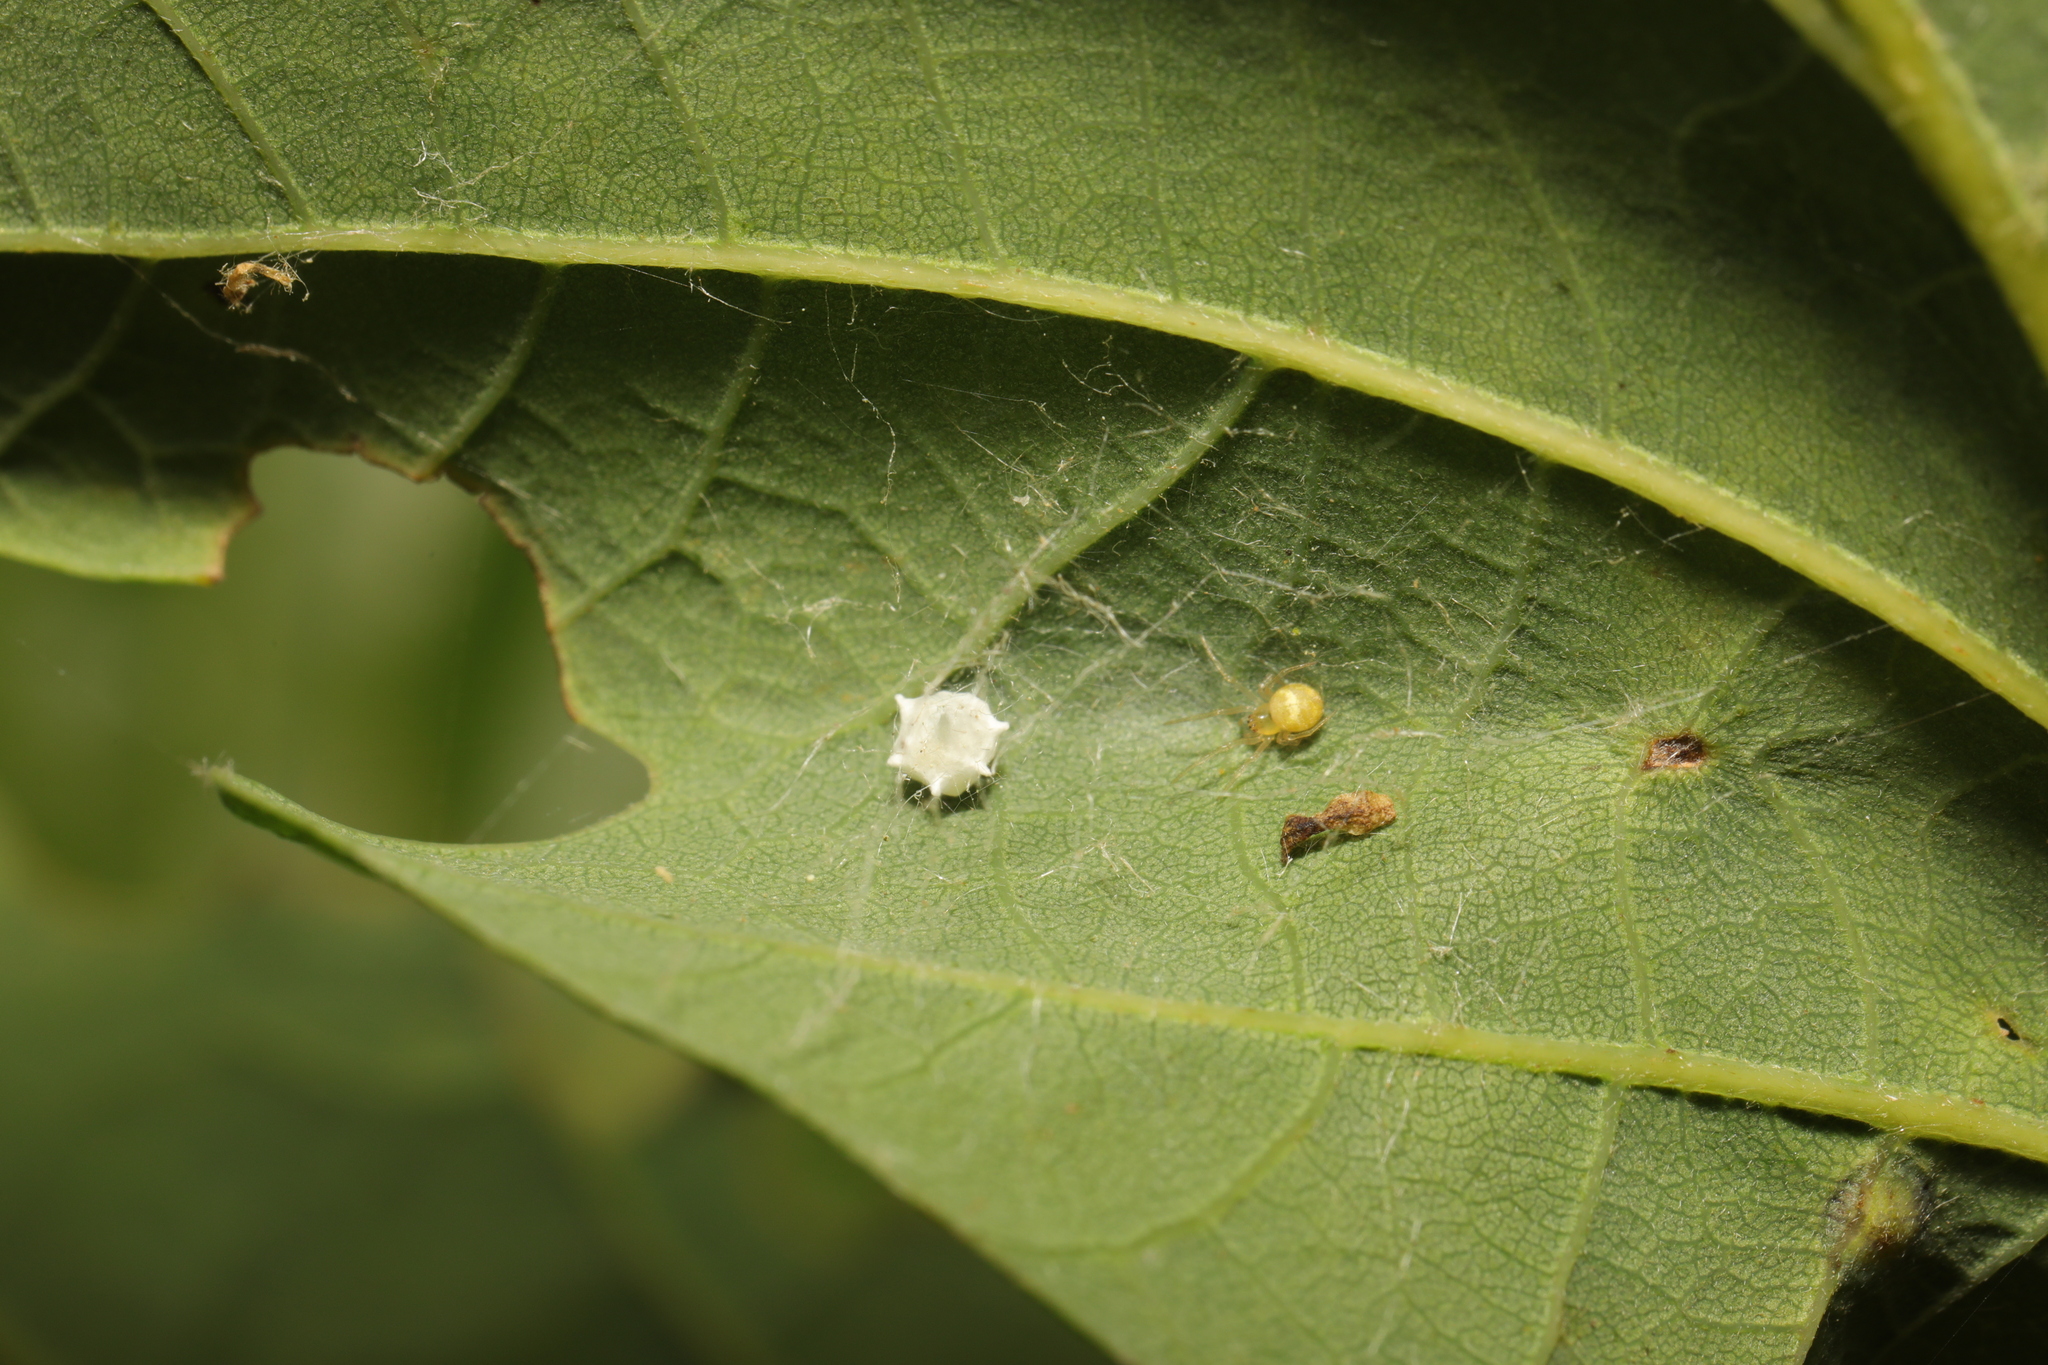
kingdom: Animalia
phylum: Arthropoda
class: Arachnida
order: Araneae
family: Theridiidae
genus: Paidiscura
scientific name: Paidiscura pallens
